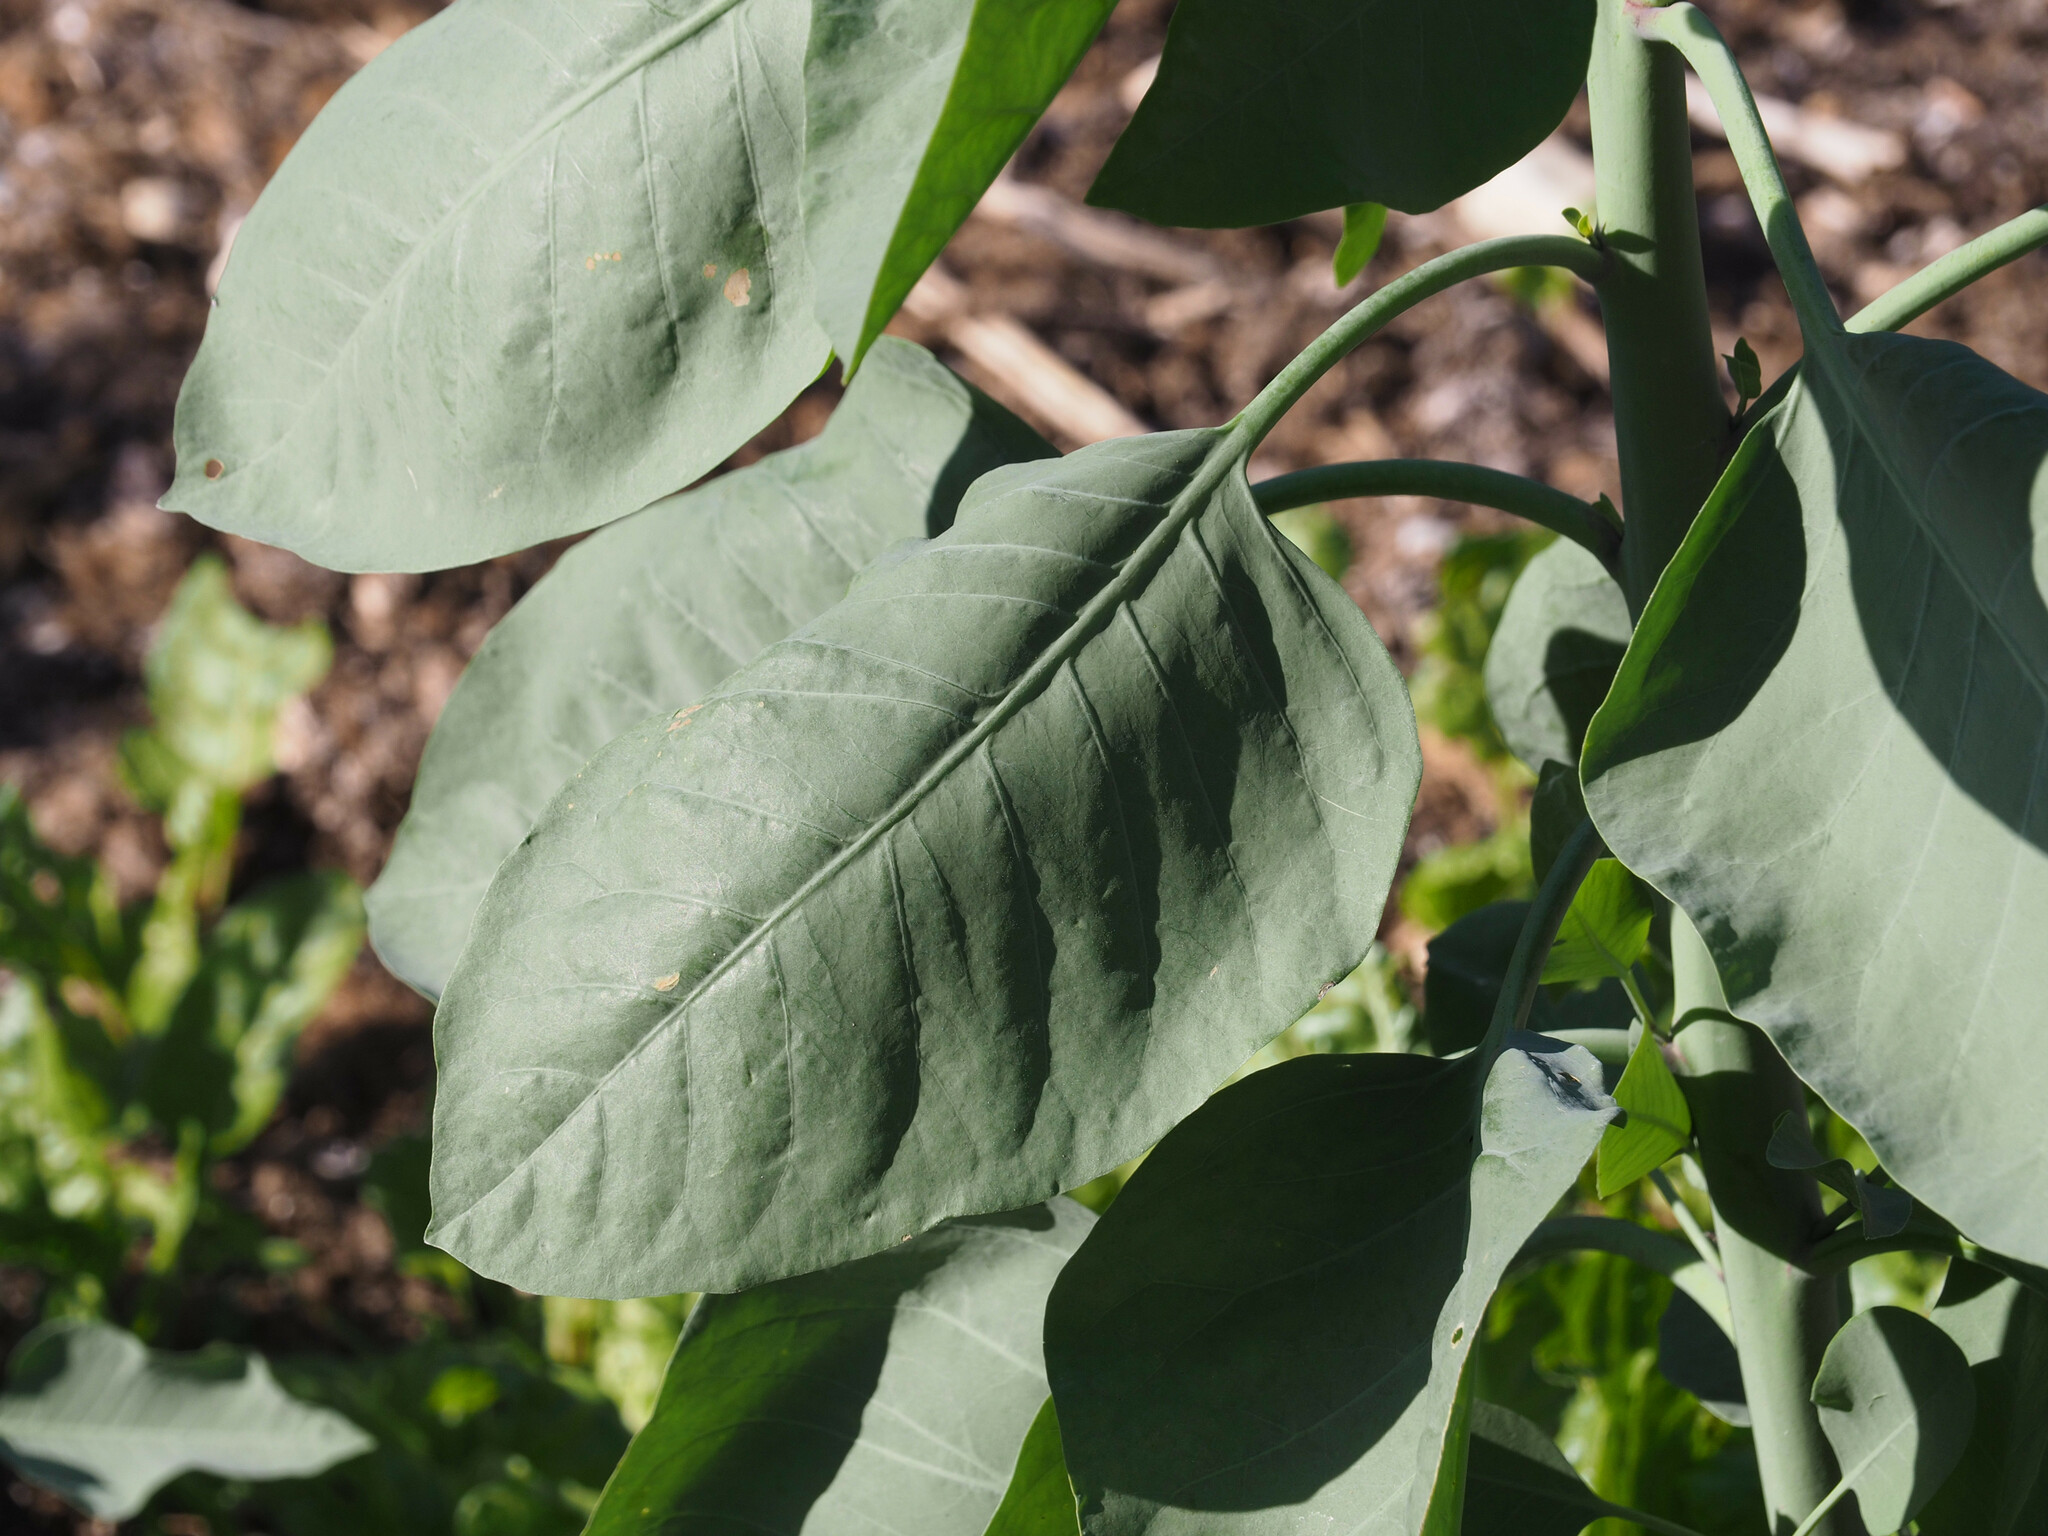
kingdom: Plantae
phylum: Tracheophyta
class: Magnoliopsida
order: Solanales
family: Solanaceae
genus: Nicotiana
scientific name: Nicotiana glauca
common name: Tree tobacco
